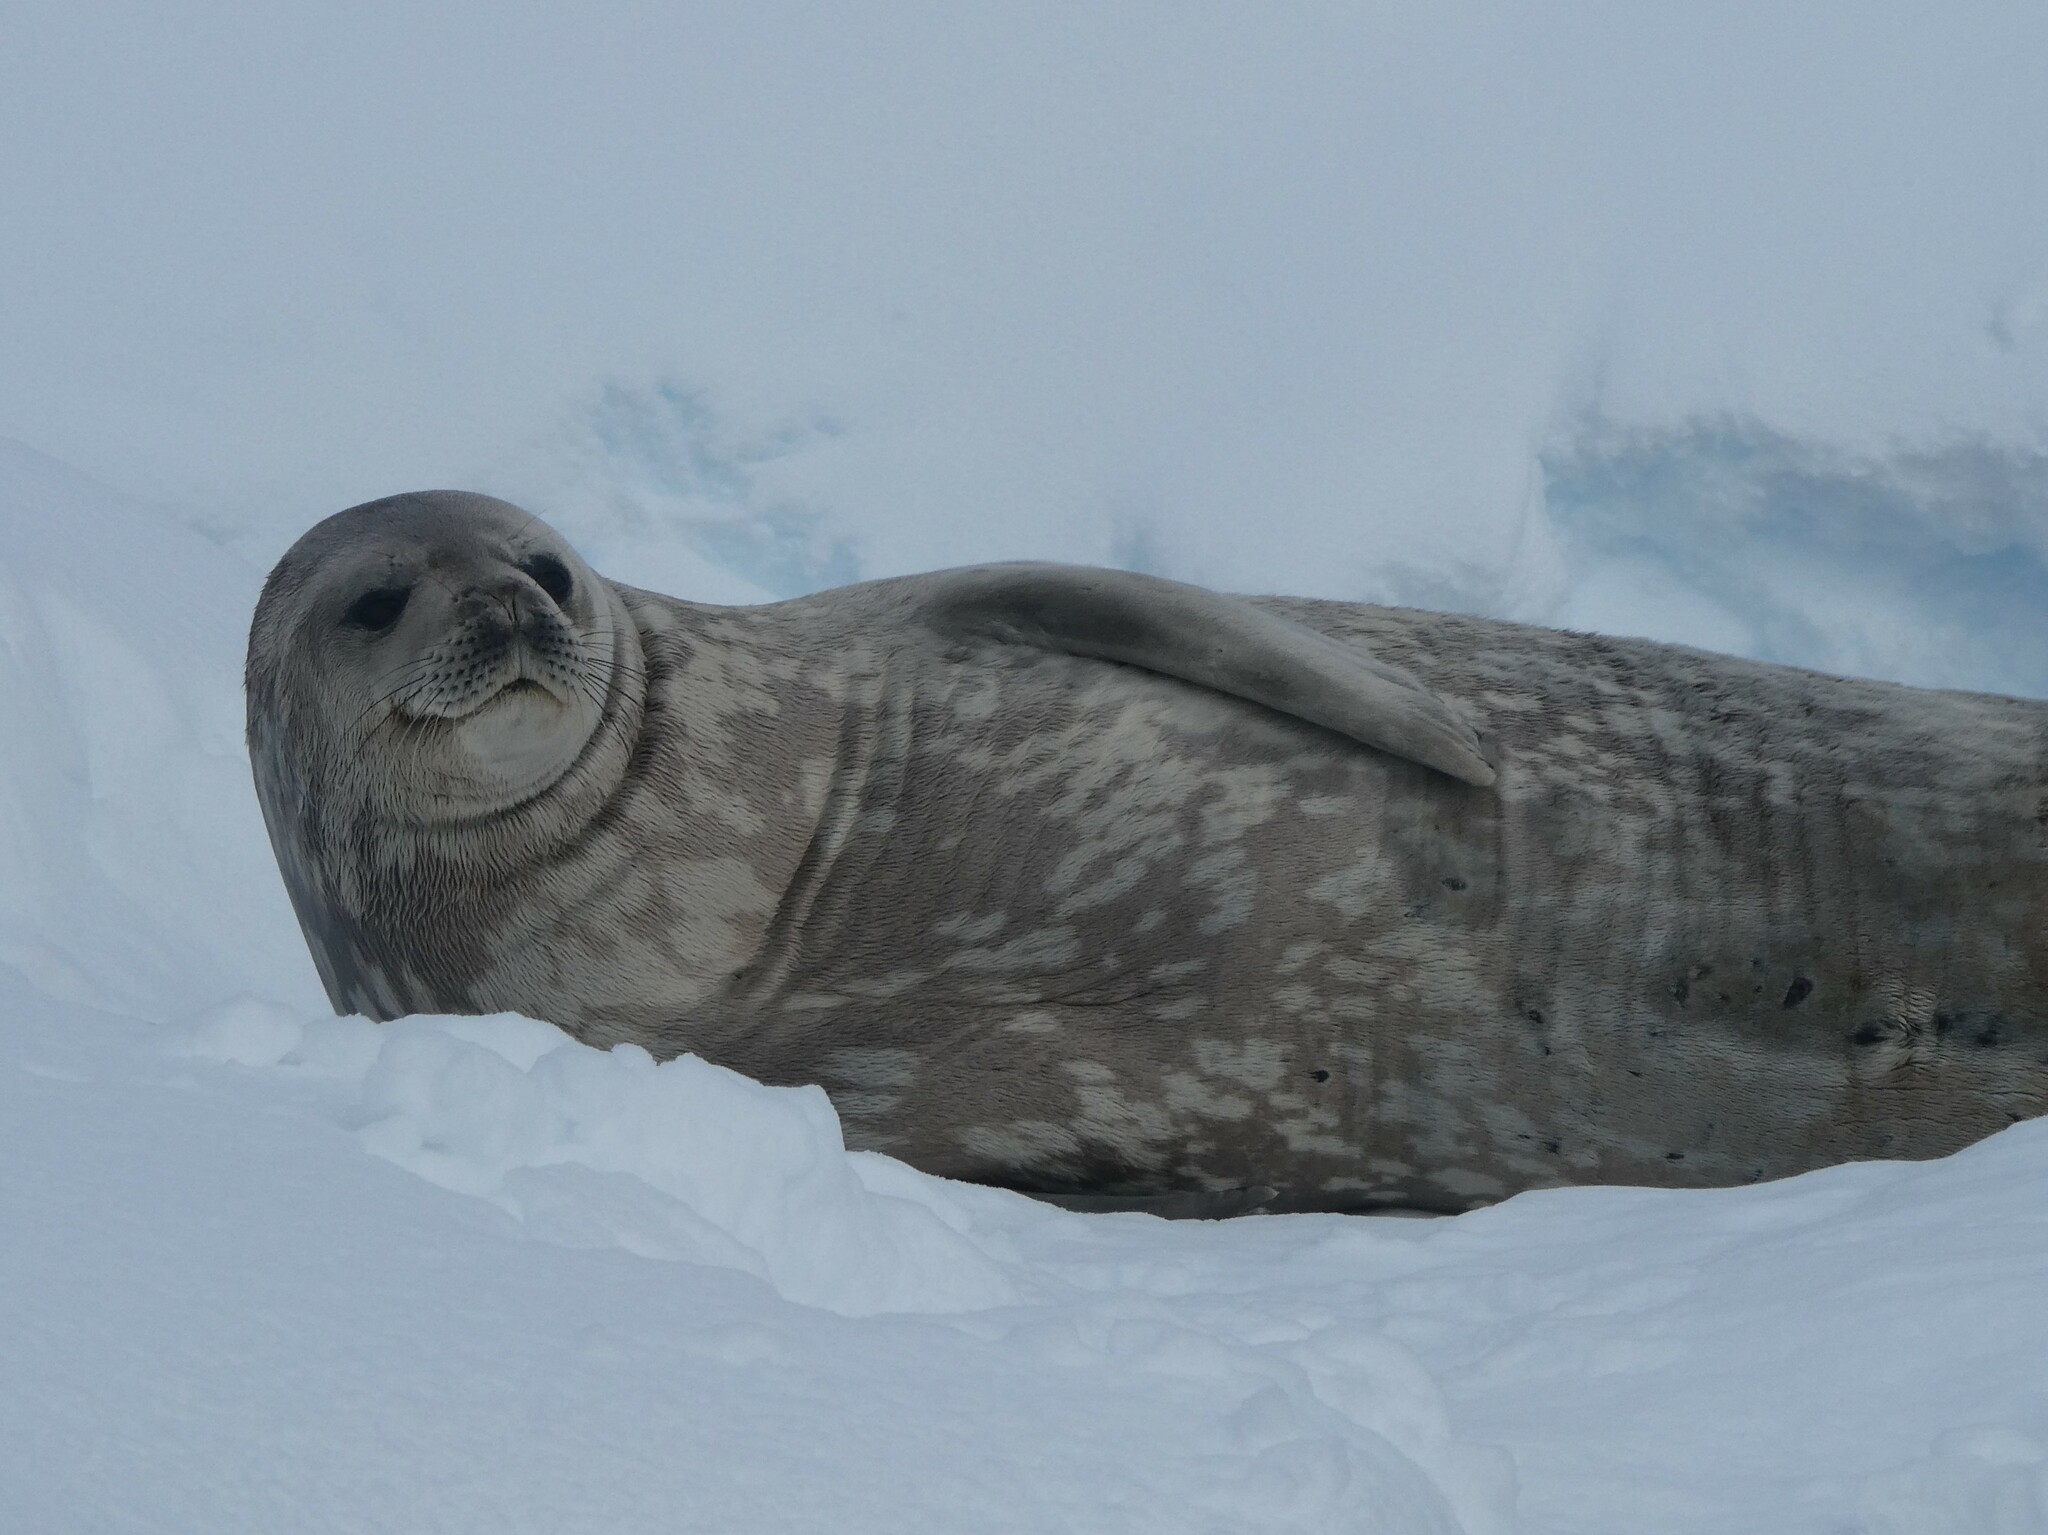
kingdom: Animalia
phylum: Chordata
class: Mammalia
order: Carnivora
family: Phocidae
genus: Leptonychotes
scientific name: Leptonychotes weddellii
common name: Weddell seal
